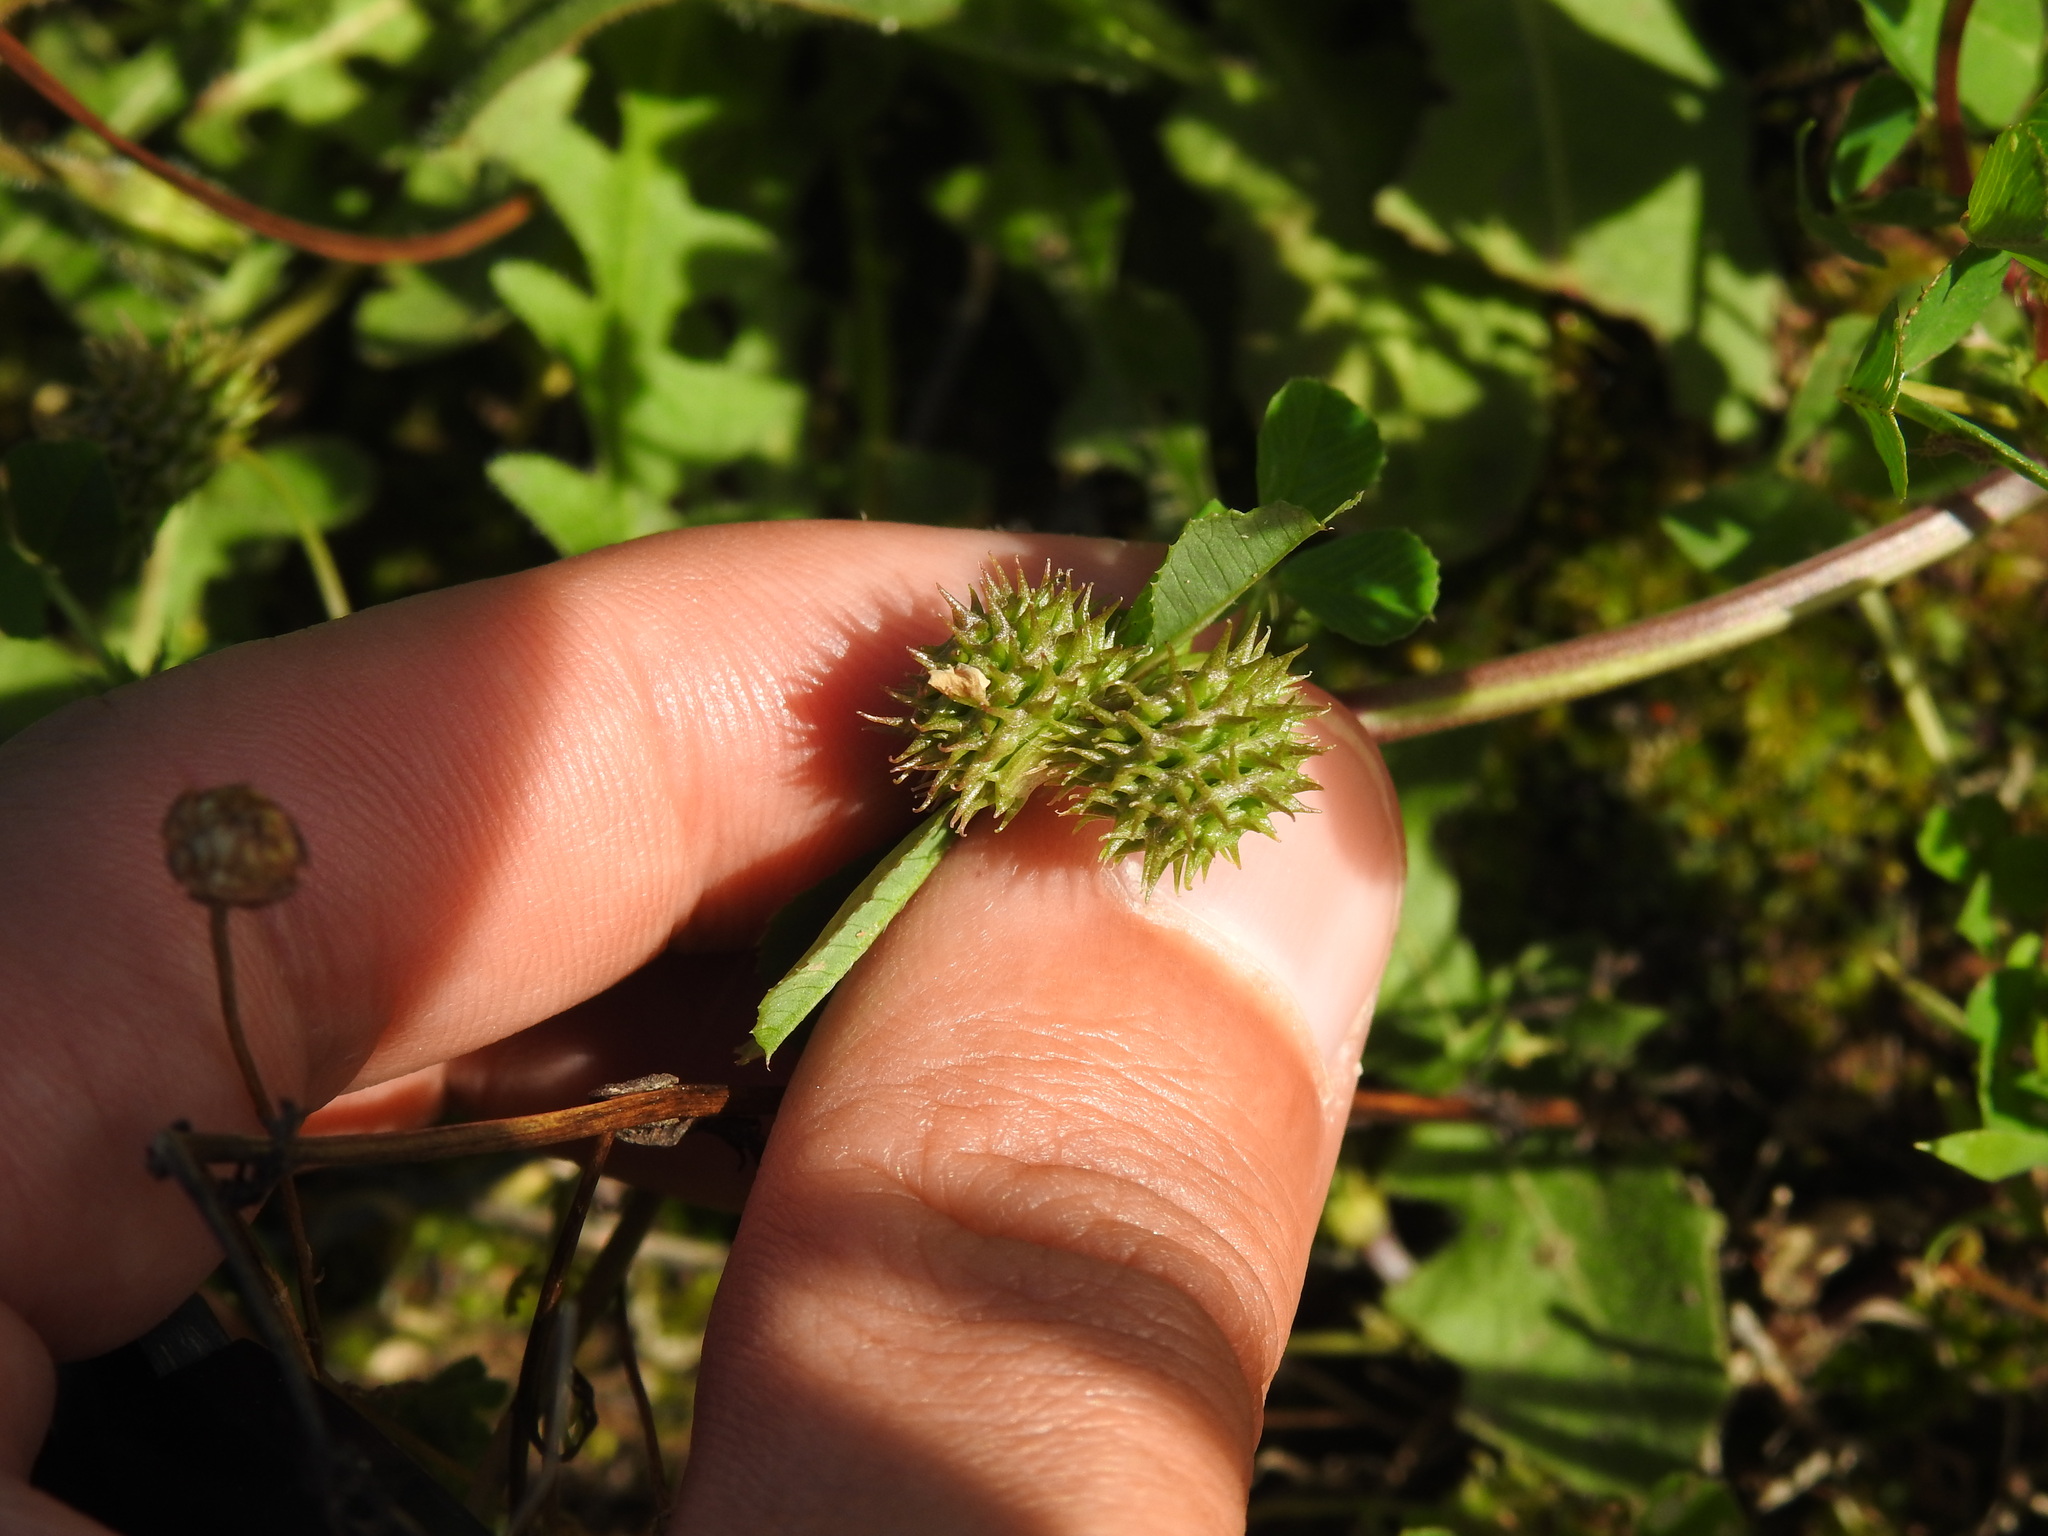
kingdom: Plantae
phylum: Tracheophyta
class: Magnoliopsida
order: Fabales
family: Fabaceae
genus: Medicago
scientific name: Medicago polymorpha
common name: Burclover
